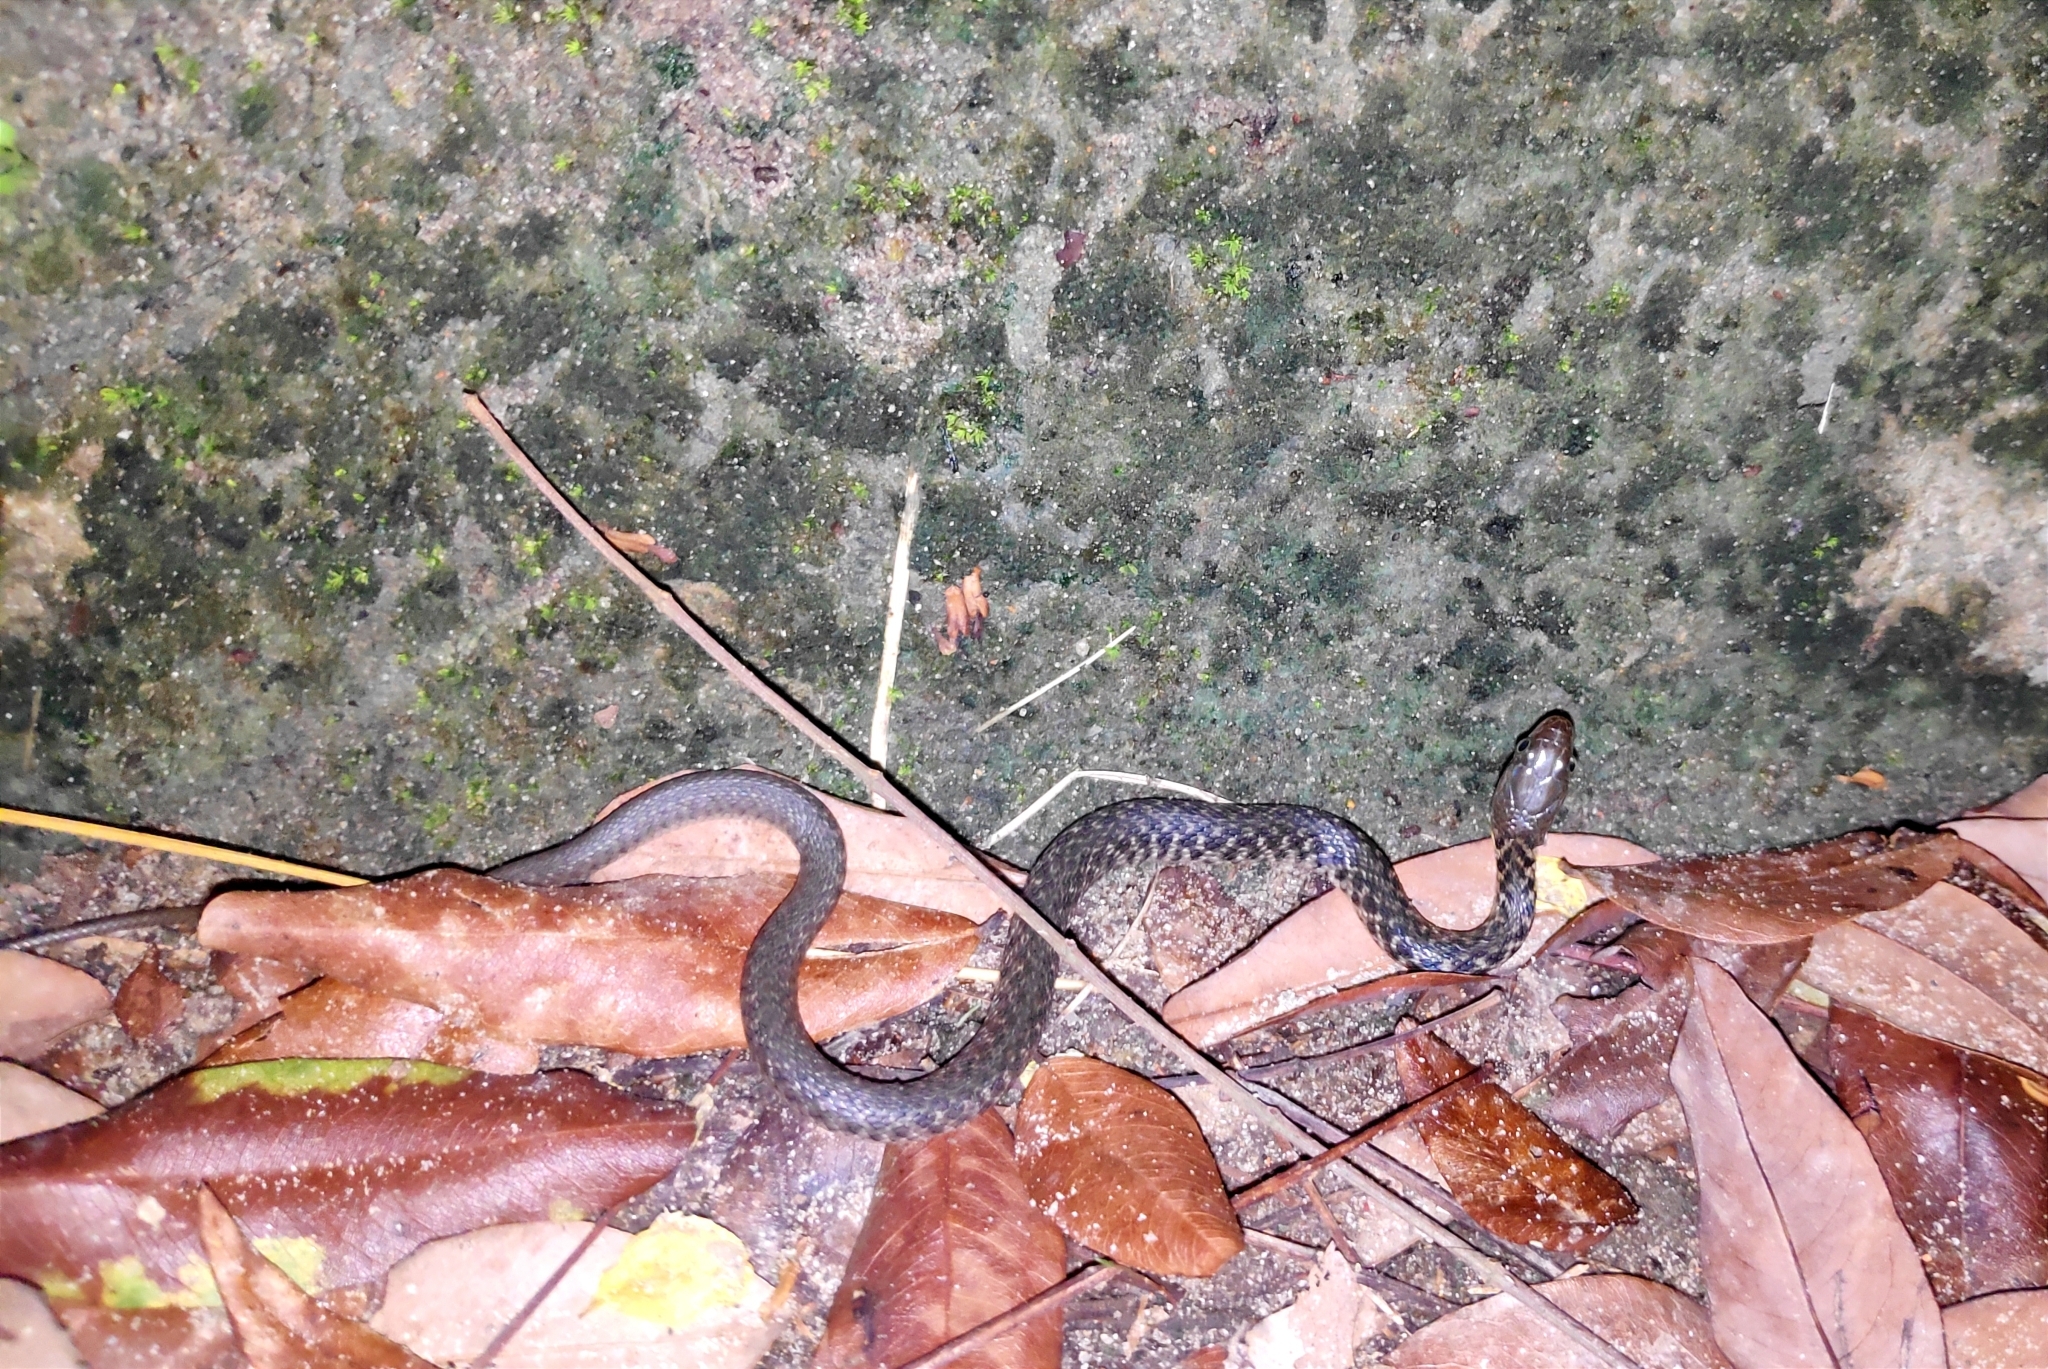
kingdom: Animalia
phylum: Chordata
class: Squamata
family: Colubridae
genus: Fowlea
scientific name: Fowlea piscator
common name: Asiatic water snake
